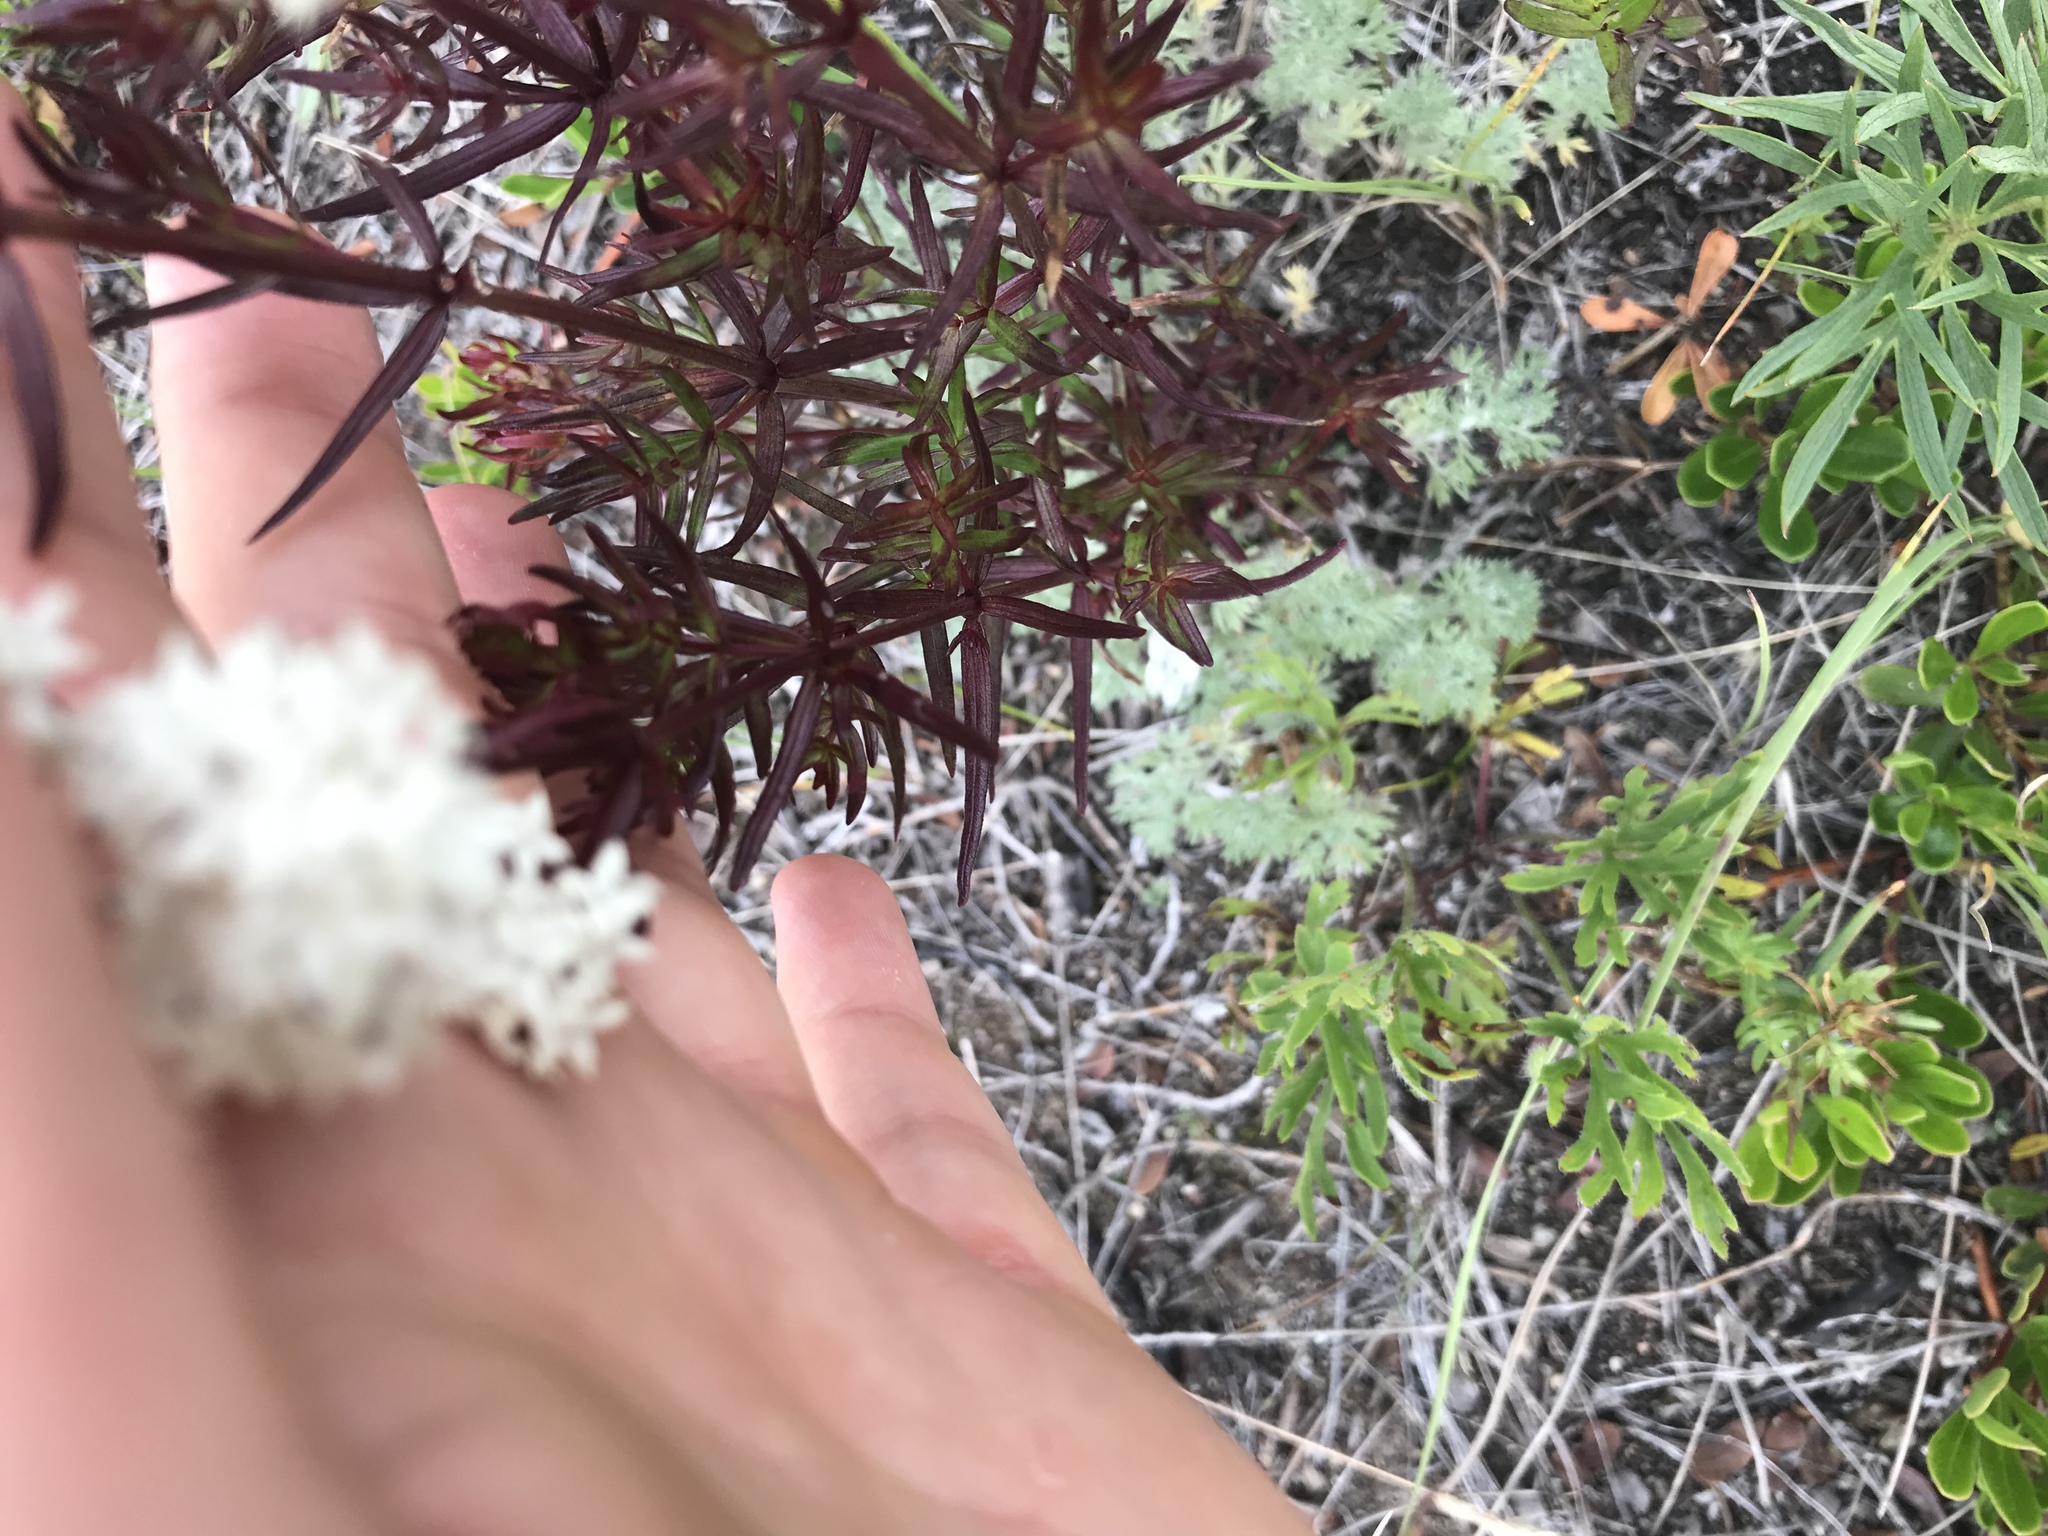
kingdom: Plantae
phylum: Tracheophyta
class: Magnoliopsida
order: Gentianales
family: Rubiaceae
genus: Galium
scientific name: Galium boreale
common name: Northern bedstraw
